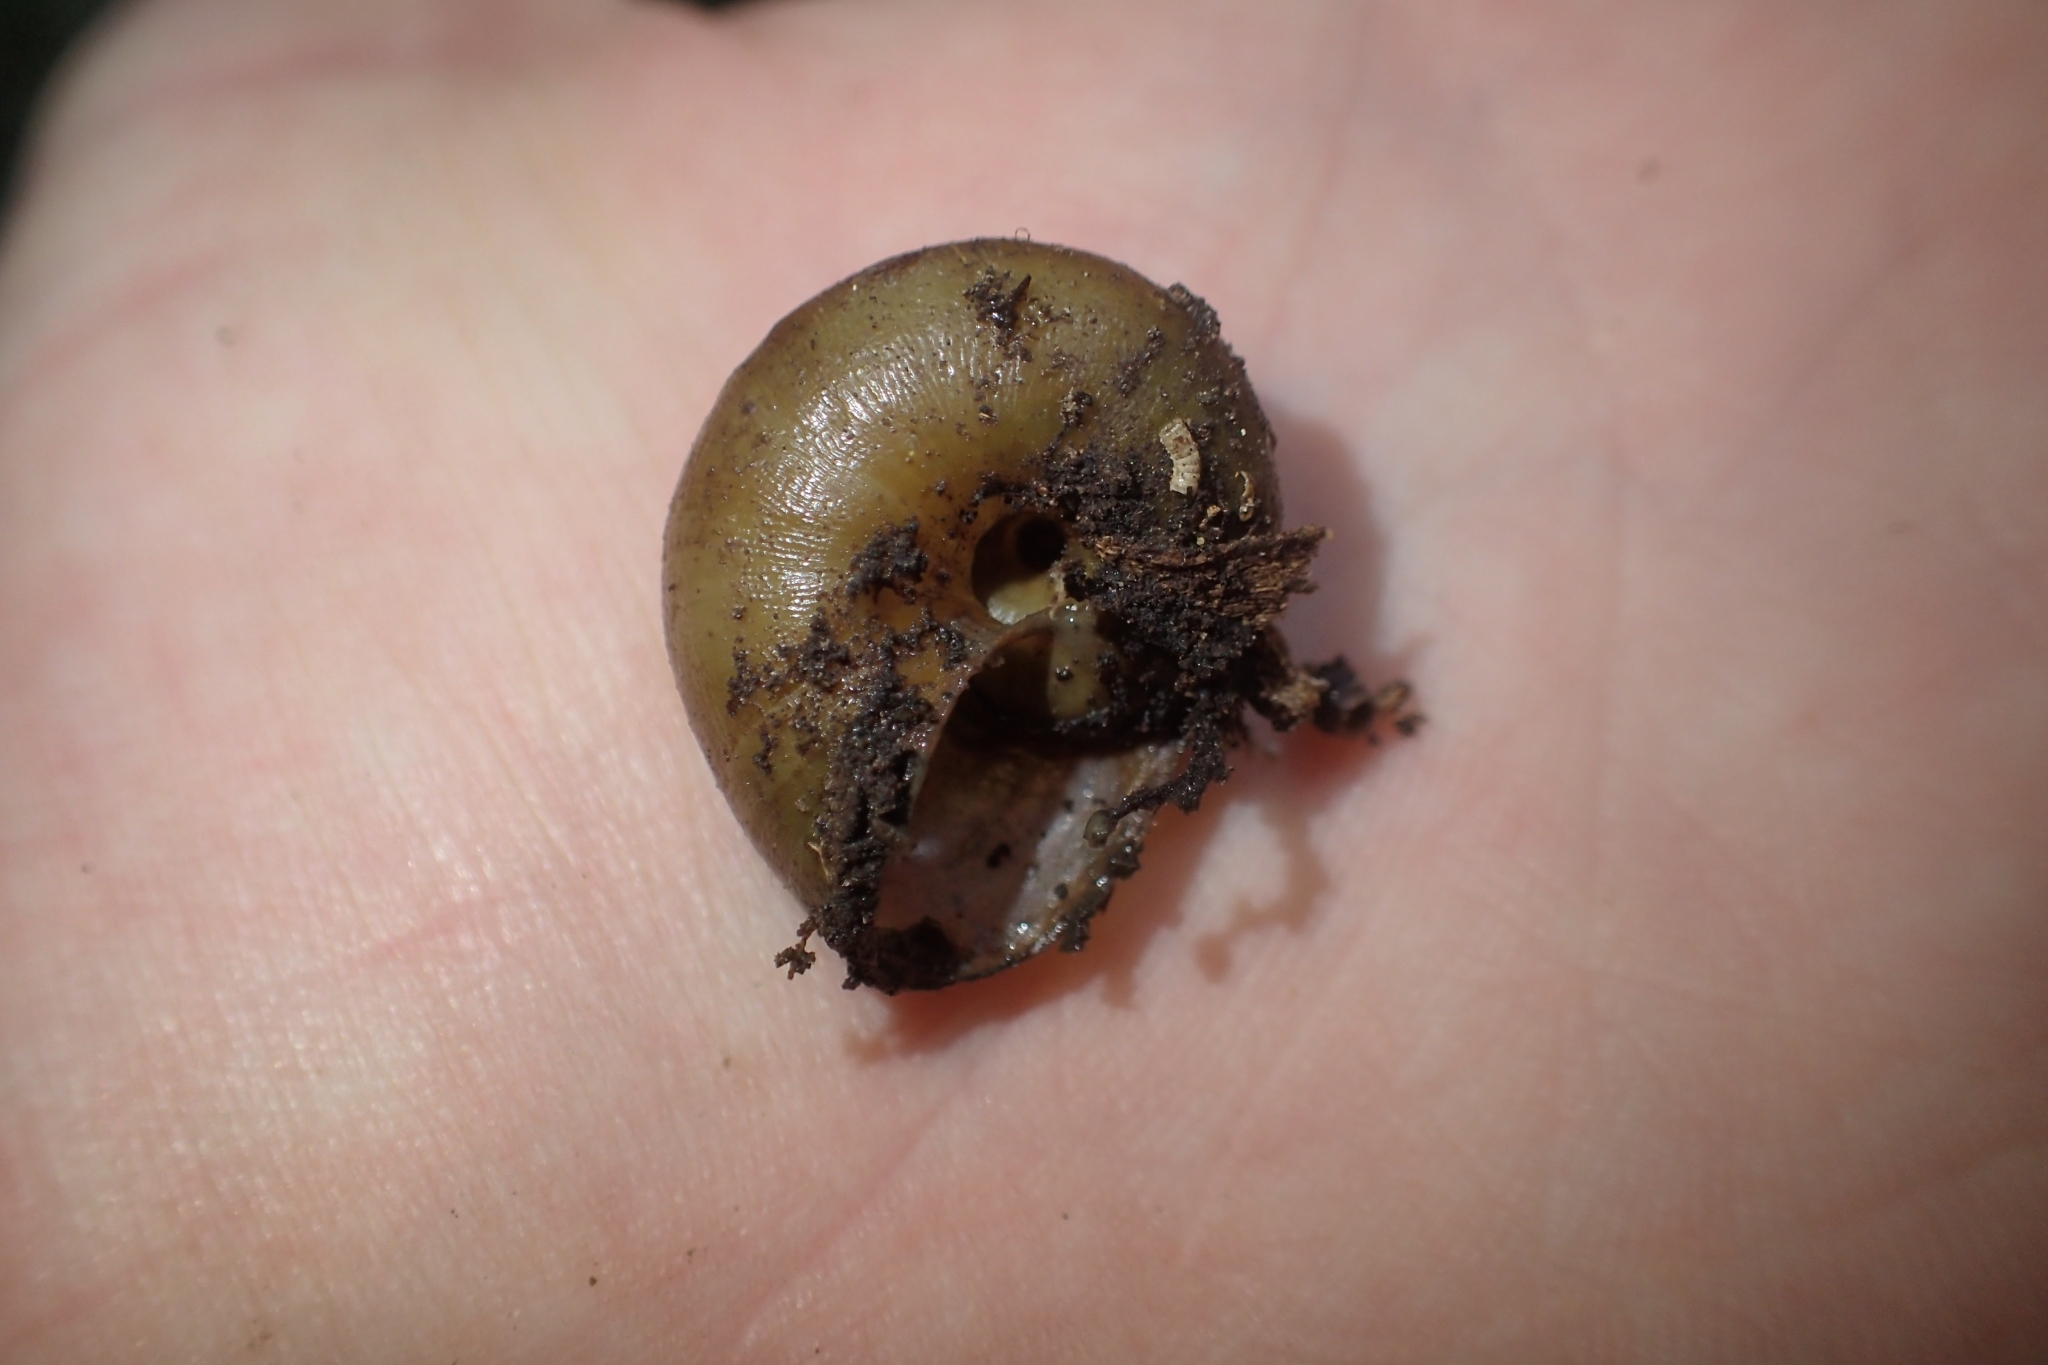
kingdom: Animalia
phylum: Mollusca
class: Gastropoda
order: Stylommatophora
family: Rhytididae
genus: Rhytida
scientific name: Rhytida greenwoodi
